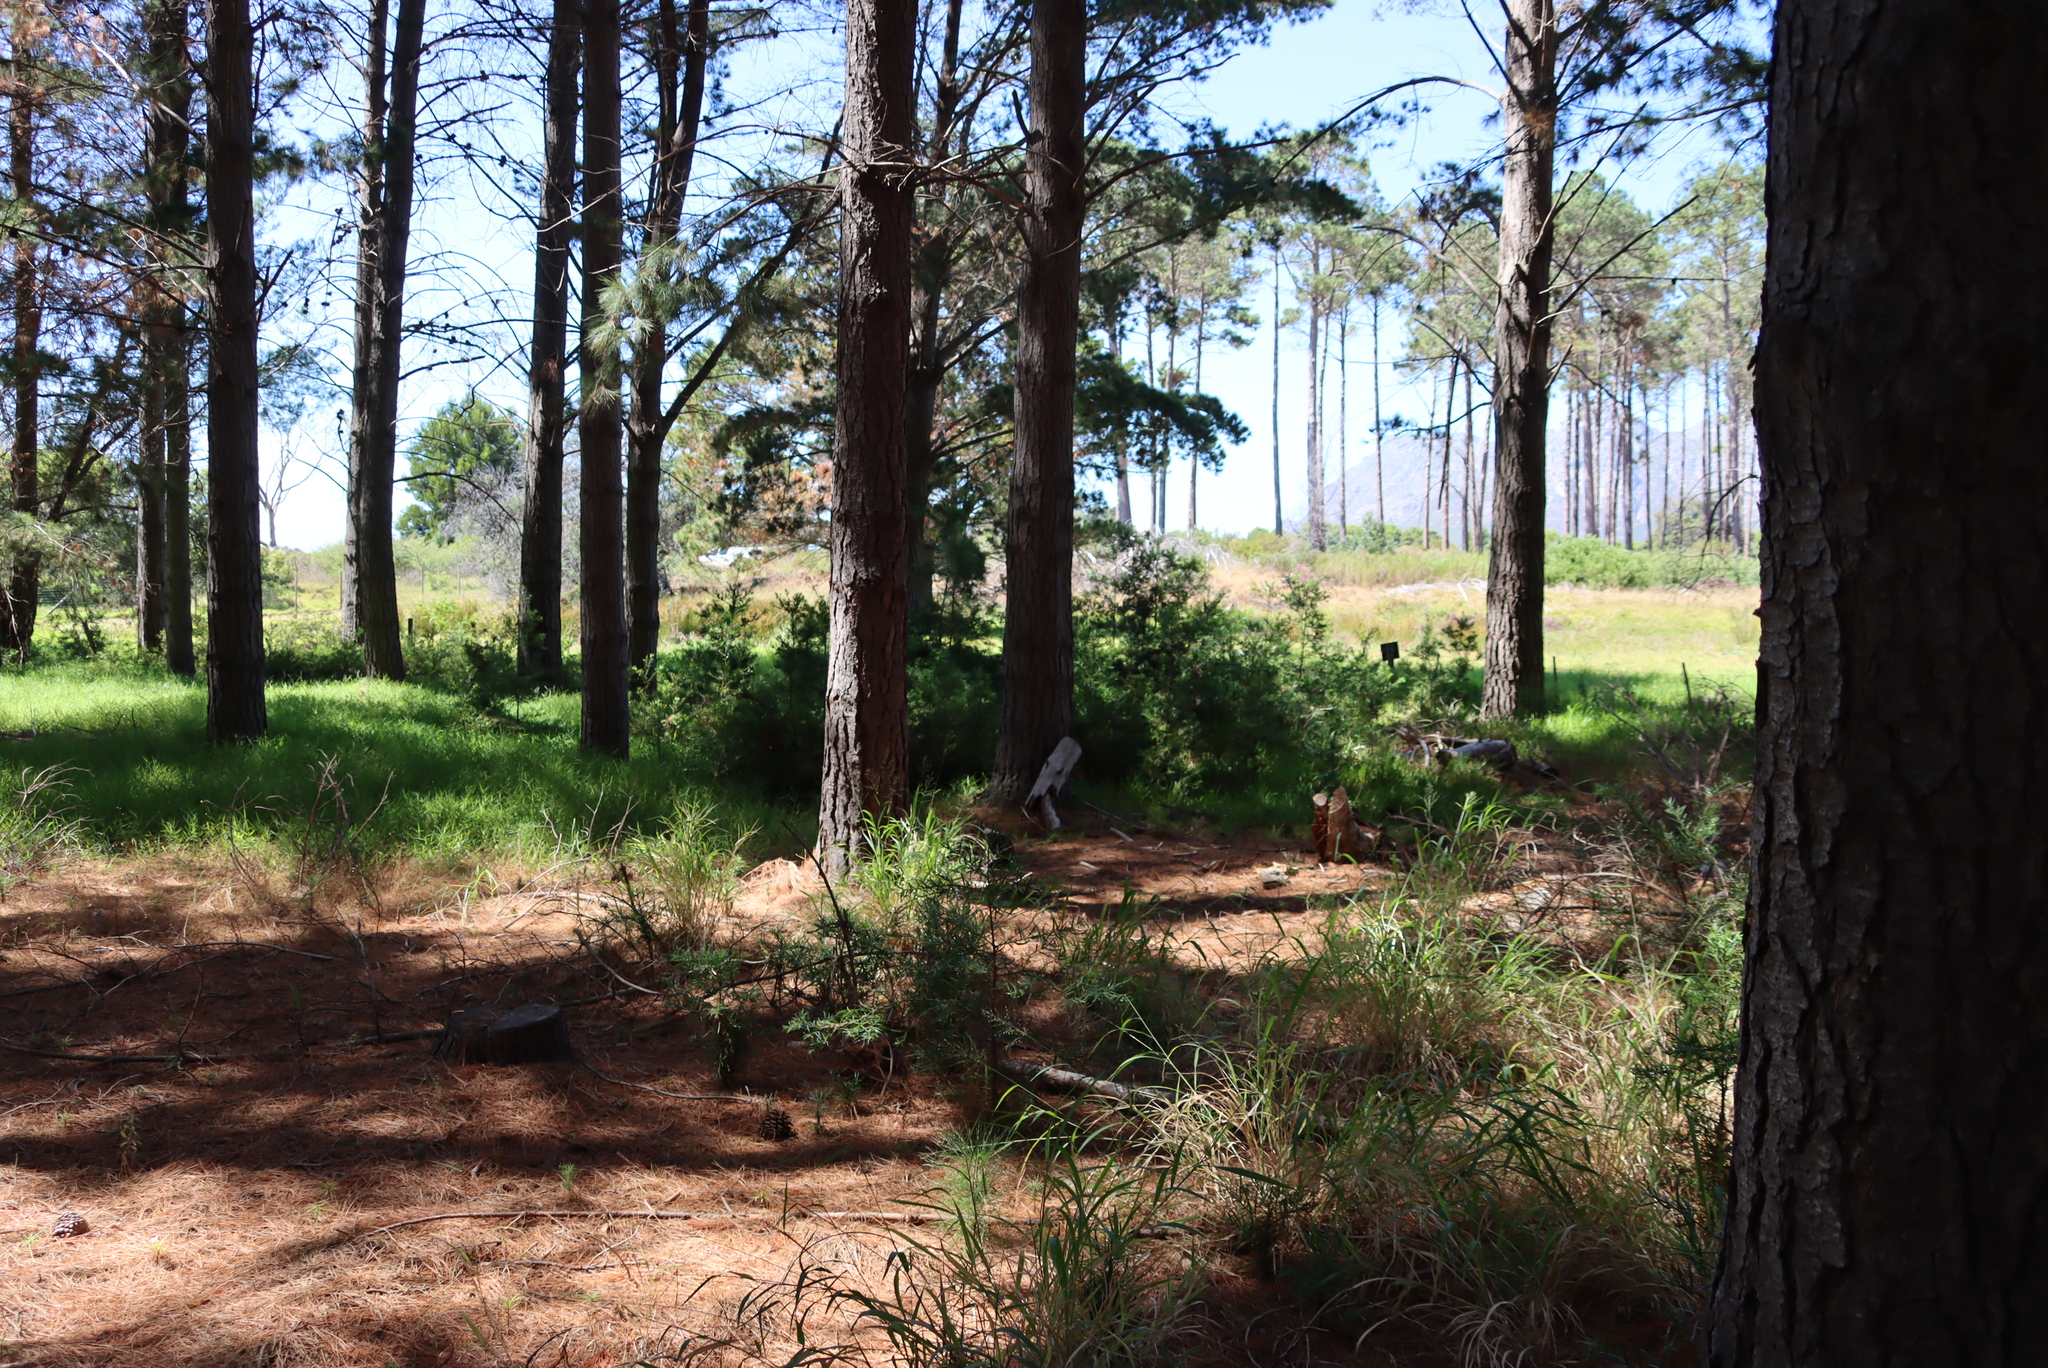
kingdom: Plantae
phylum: Tracheophyta
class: Pinopsida
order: Pinales
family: Podocarpaceae
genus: Afrocarpus
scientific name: Afrocarpus falcatus
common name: Bastard yellowwood
